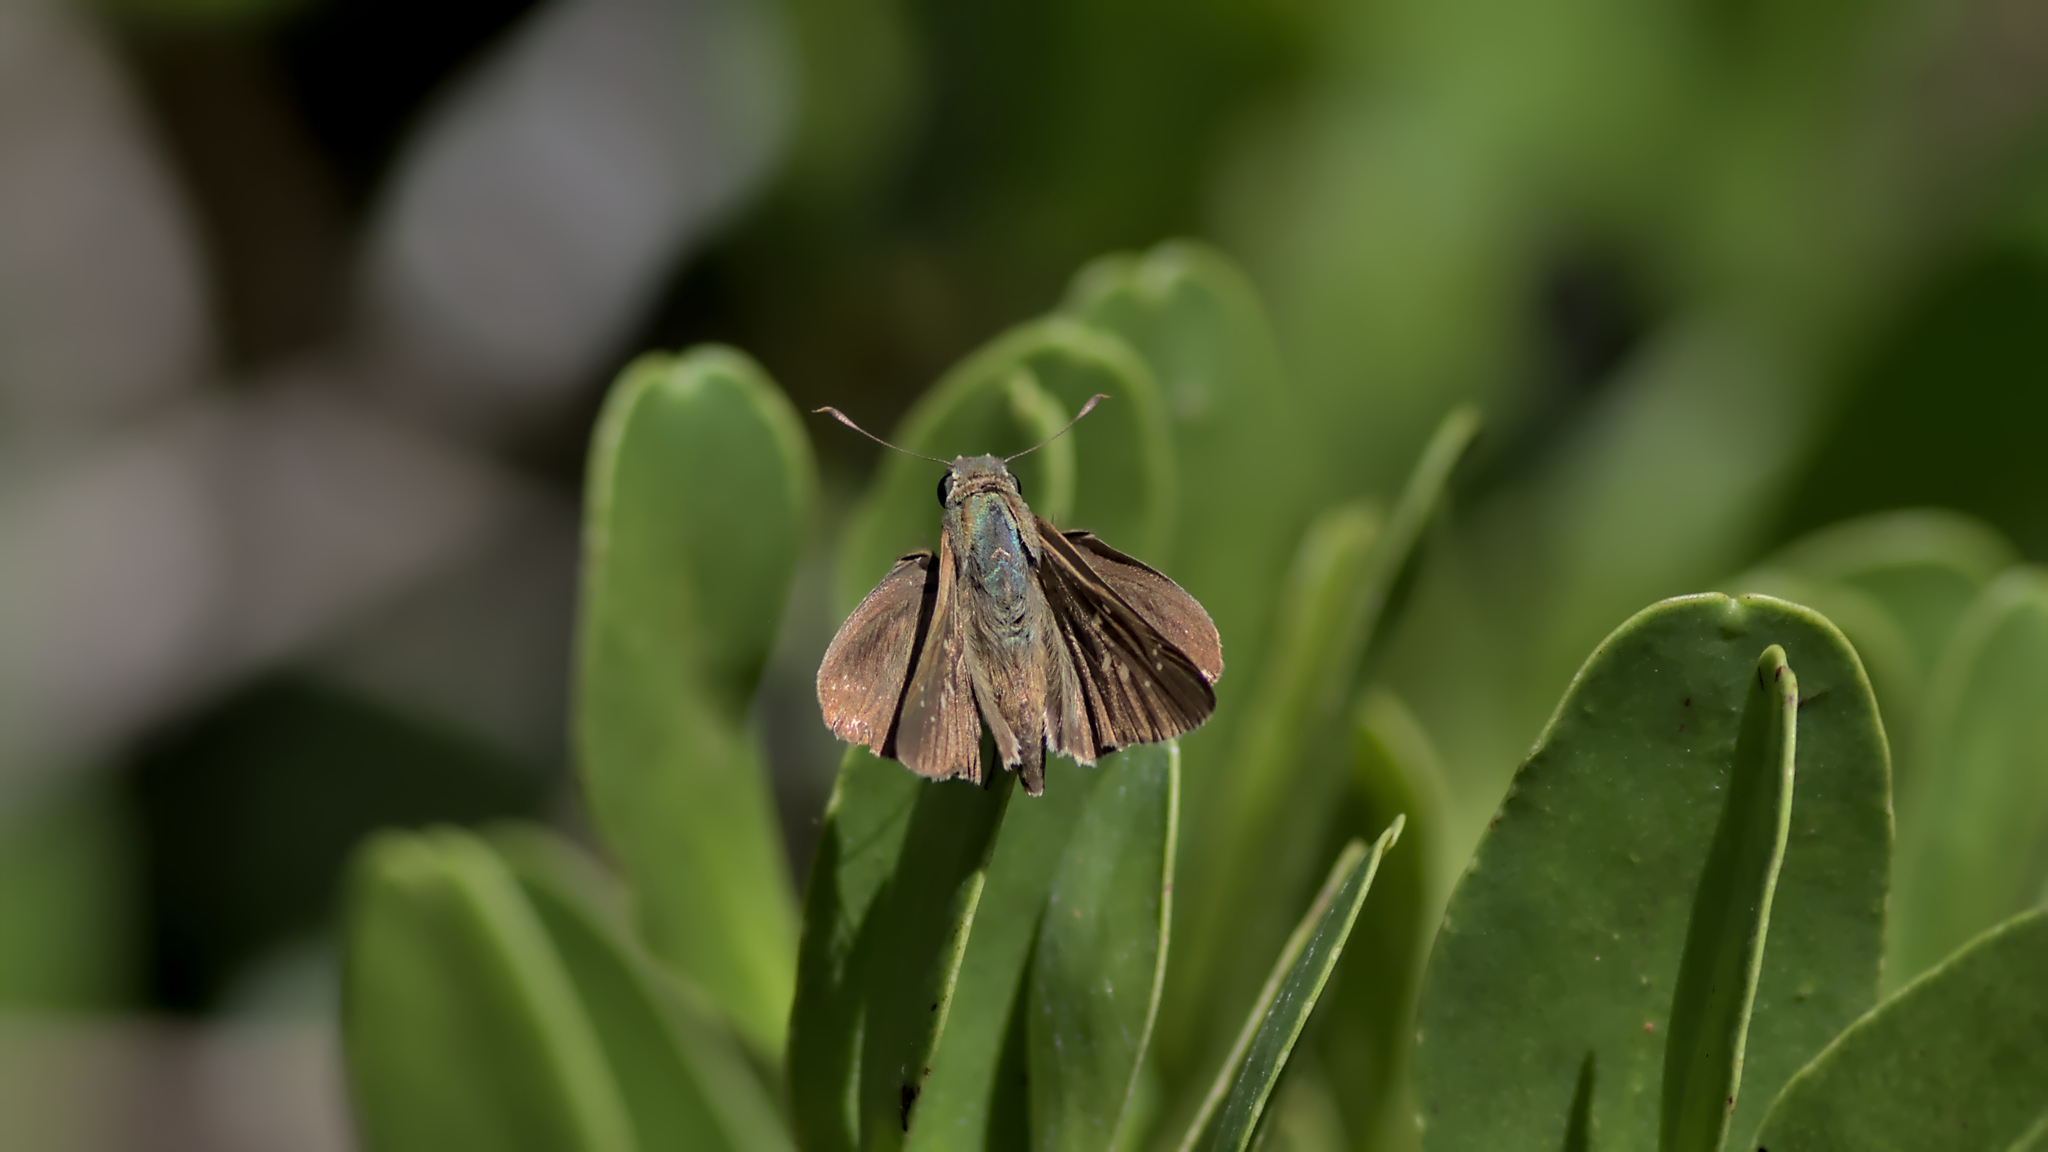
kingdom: Animalia
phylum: Arthropoda
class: Insecta
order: Lepidoptera
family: Hesperiidae
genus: Pelopidas
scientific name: Pelopidas lyelli
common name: Lyell's swift
